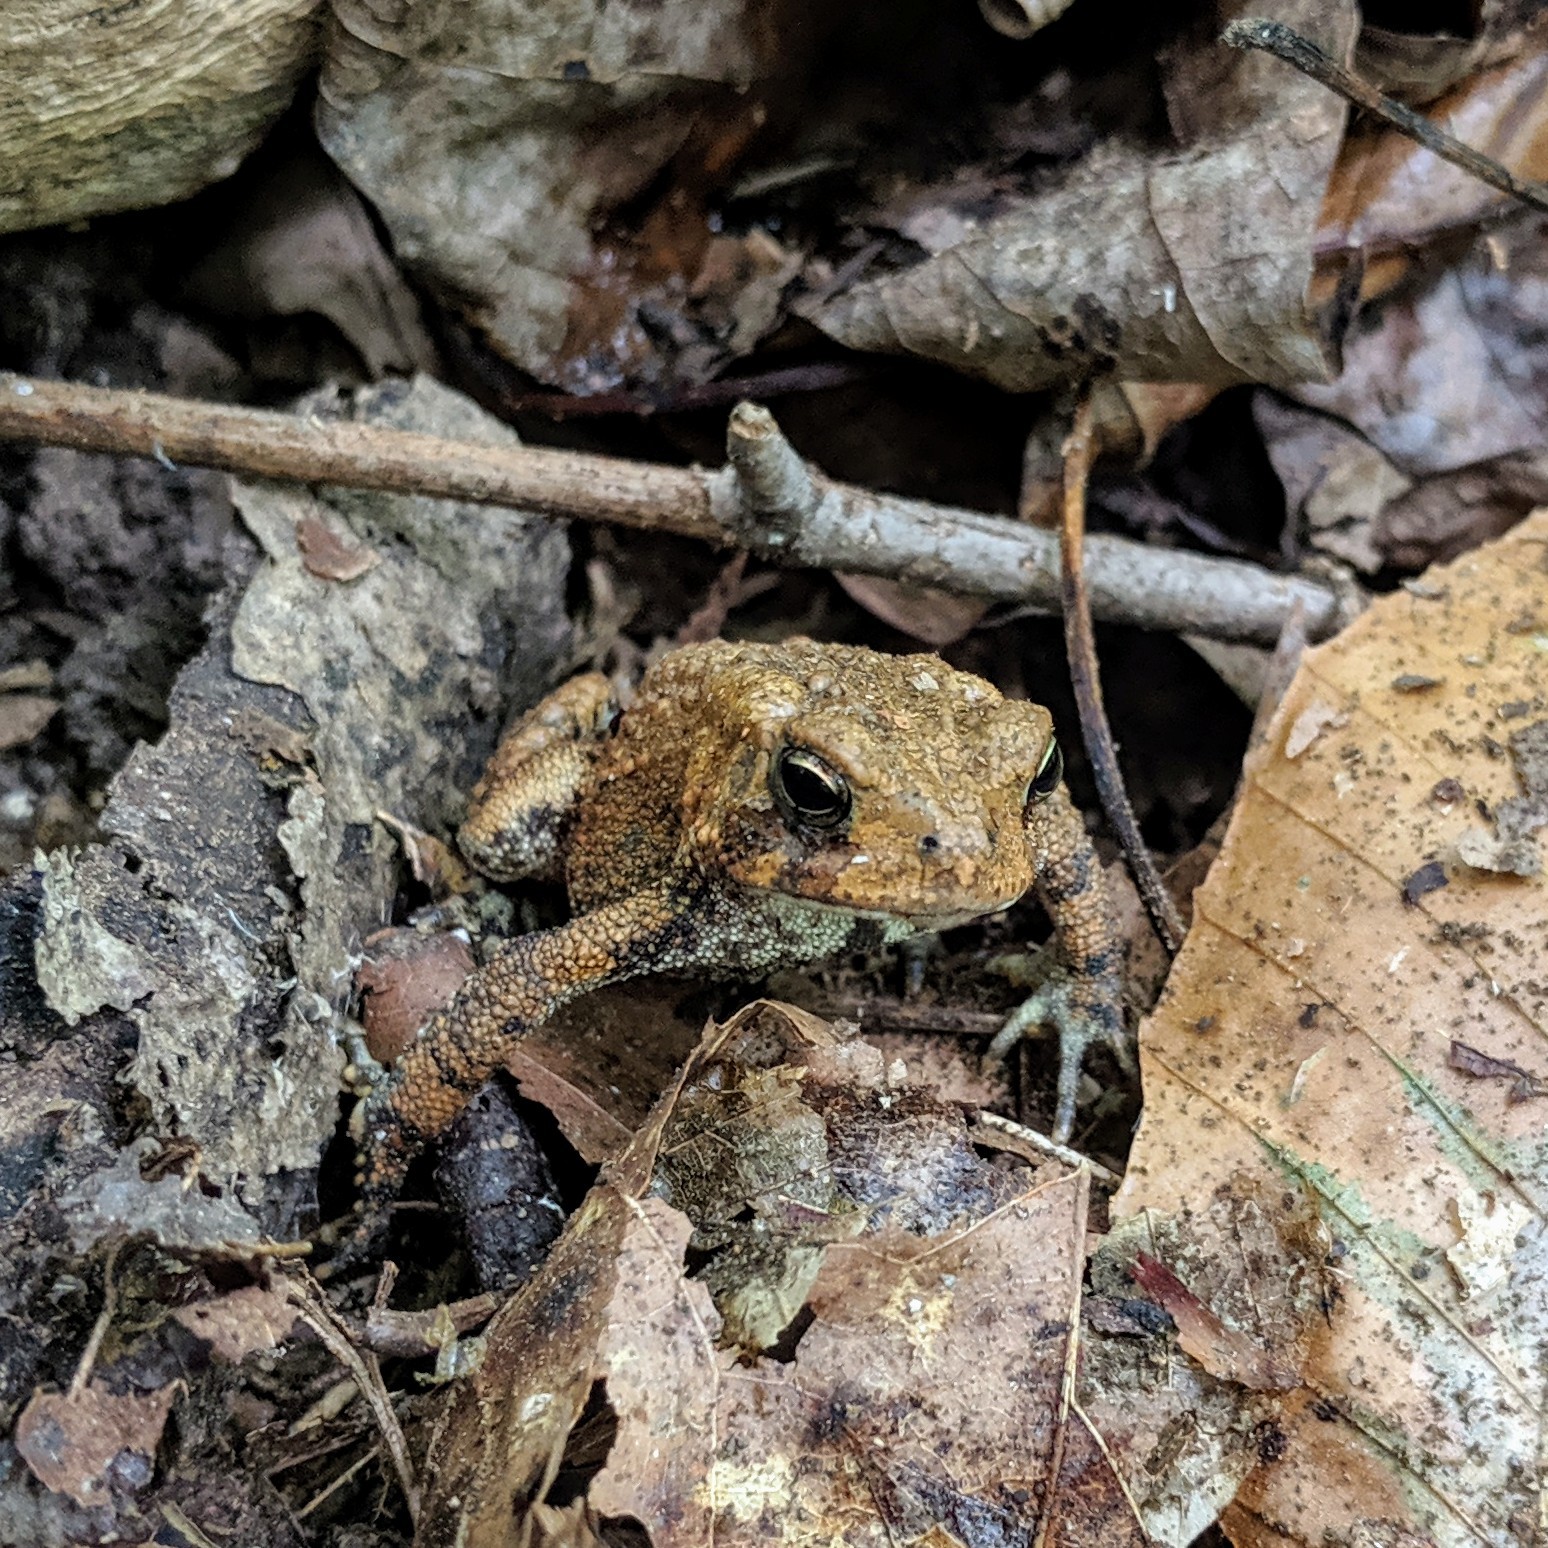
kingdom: Animalia
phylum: Chordata
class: Amphibia
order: Anura
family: Bufonidae
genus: Anaxyrus
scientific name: Anaxyrus americanus
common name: American toad
